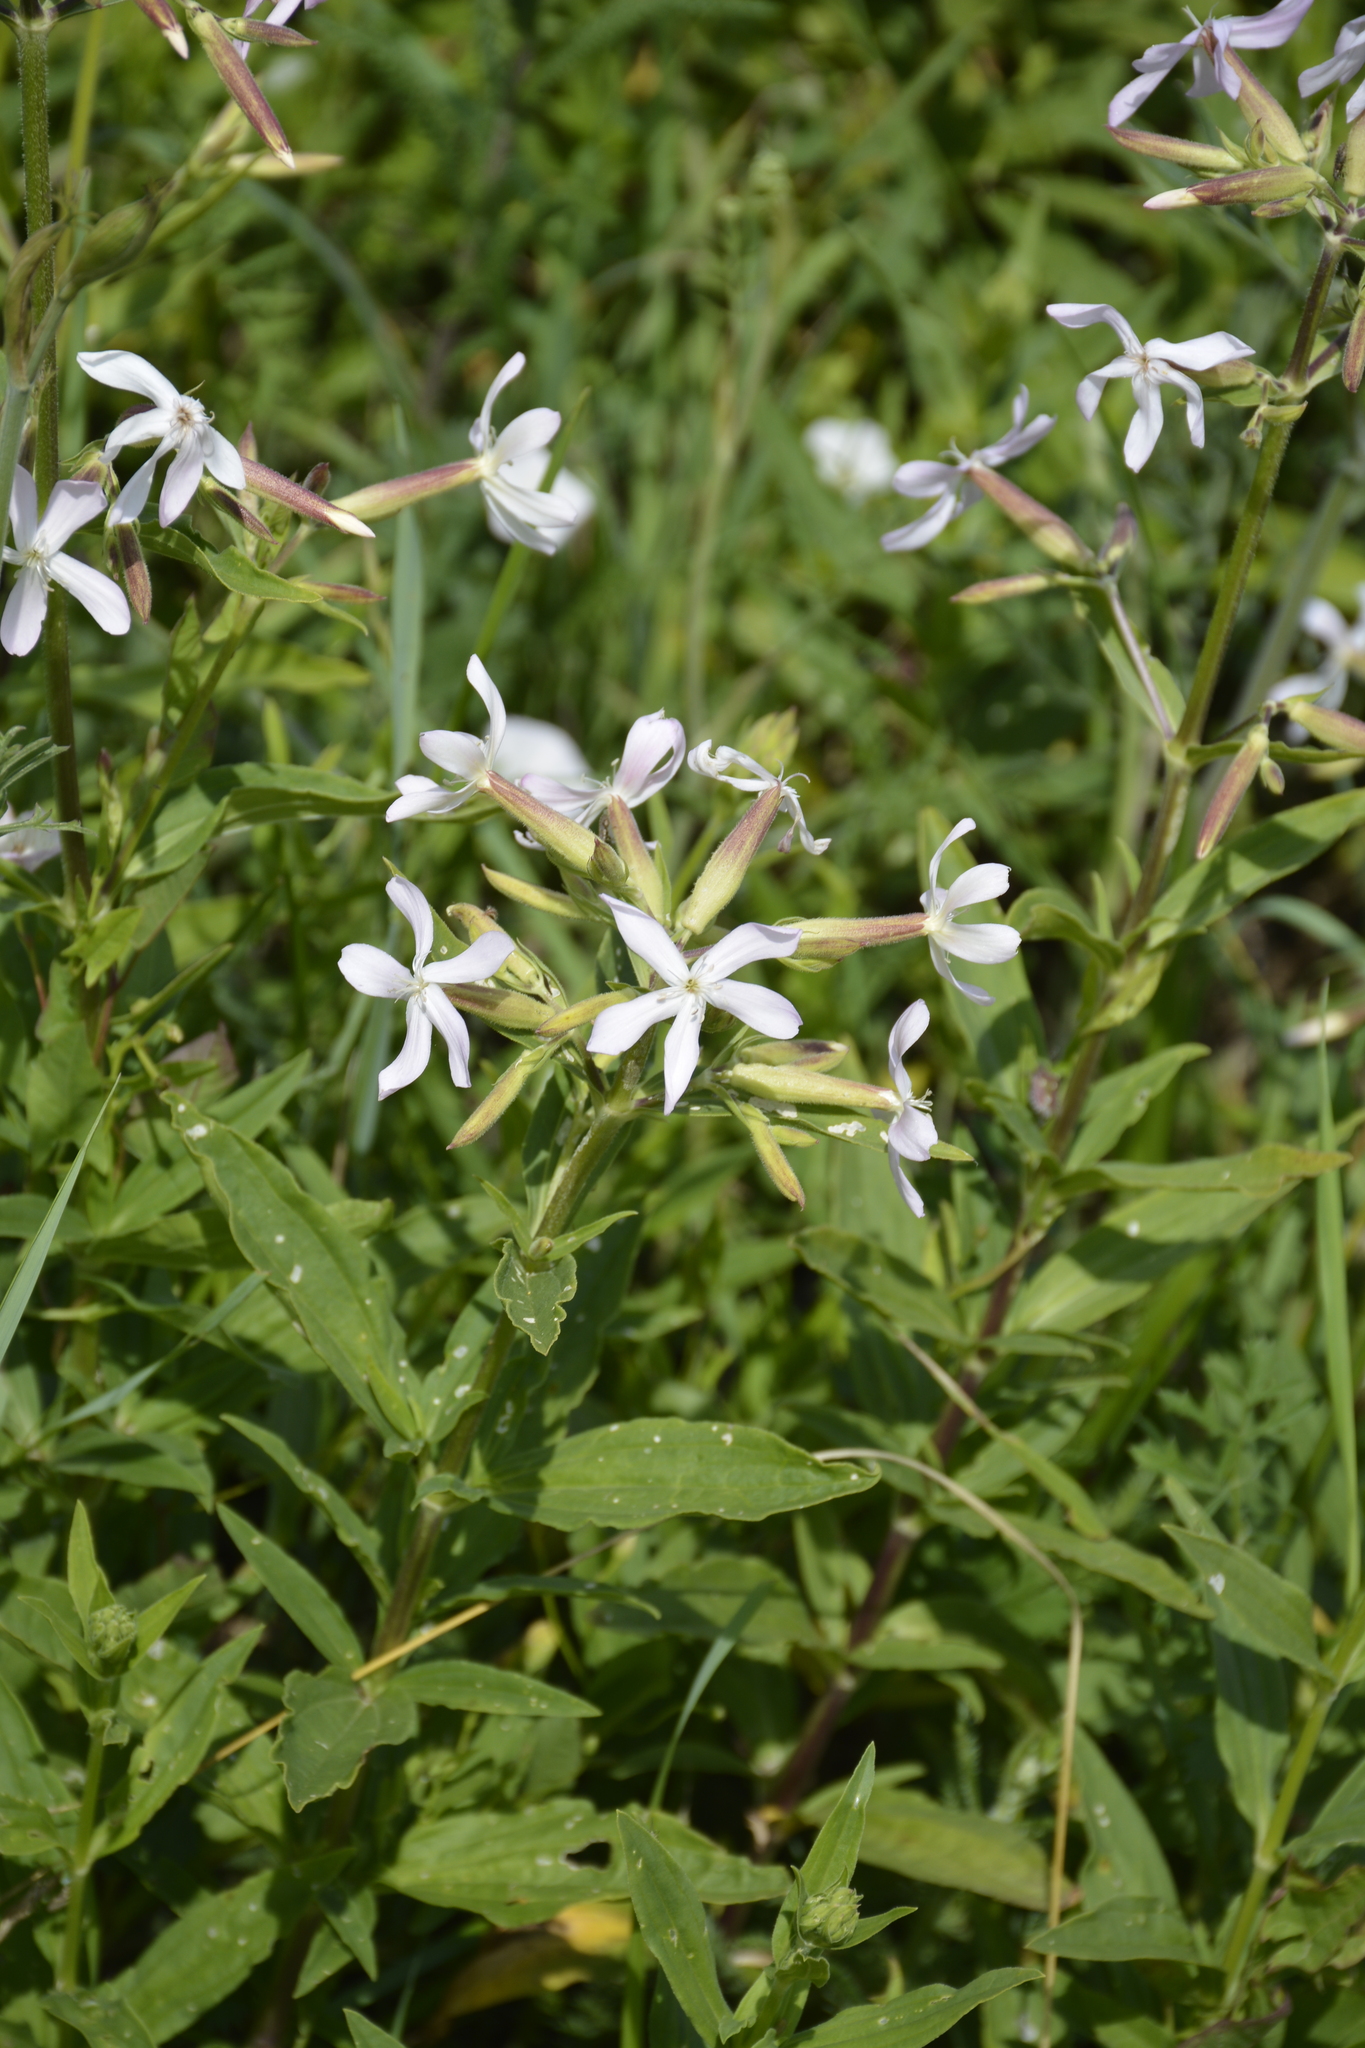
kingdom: Plantae
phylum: Tracheophyta
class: Magnoliopsida
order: Caryophyllales
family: Caryophyllaceae
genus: Saponaria
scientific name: Saponaria officinalis
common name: Soapwort
